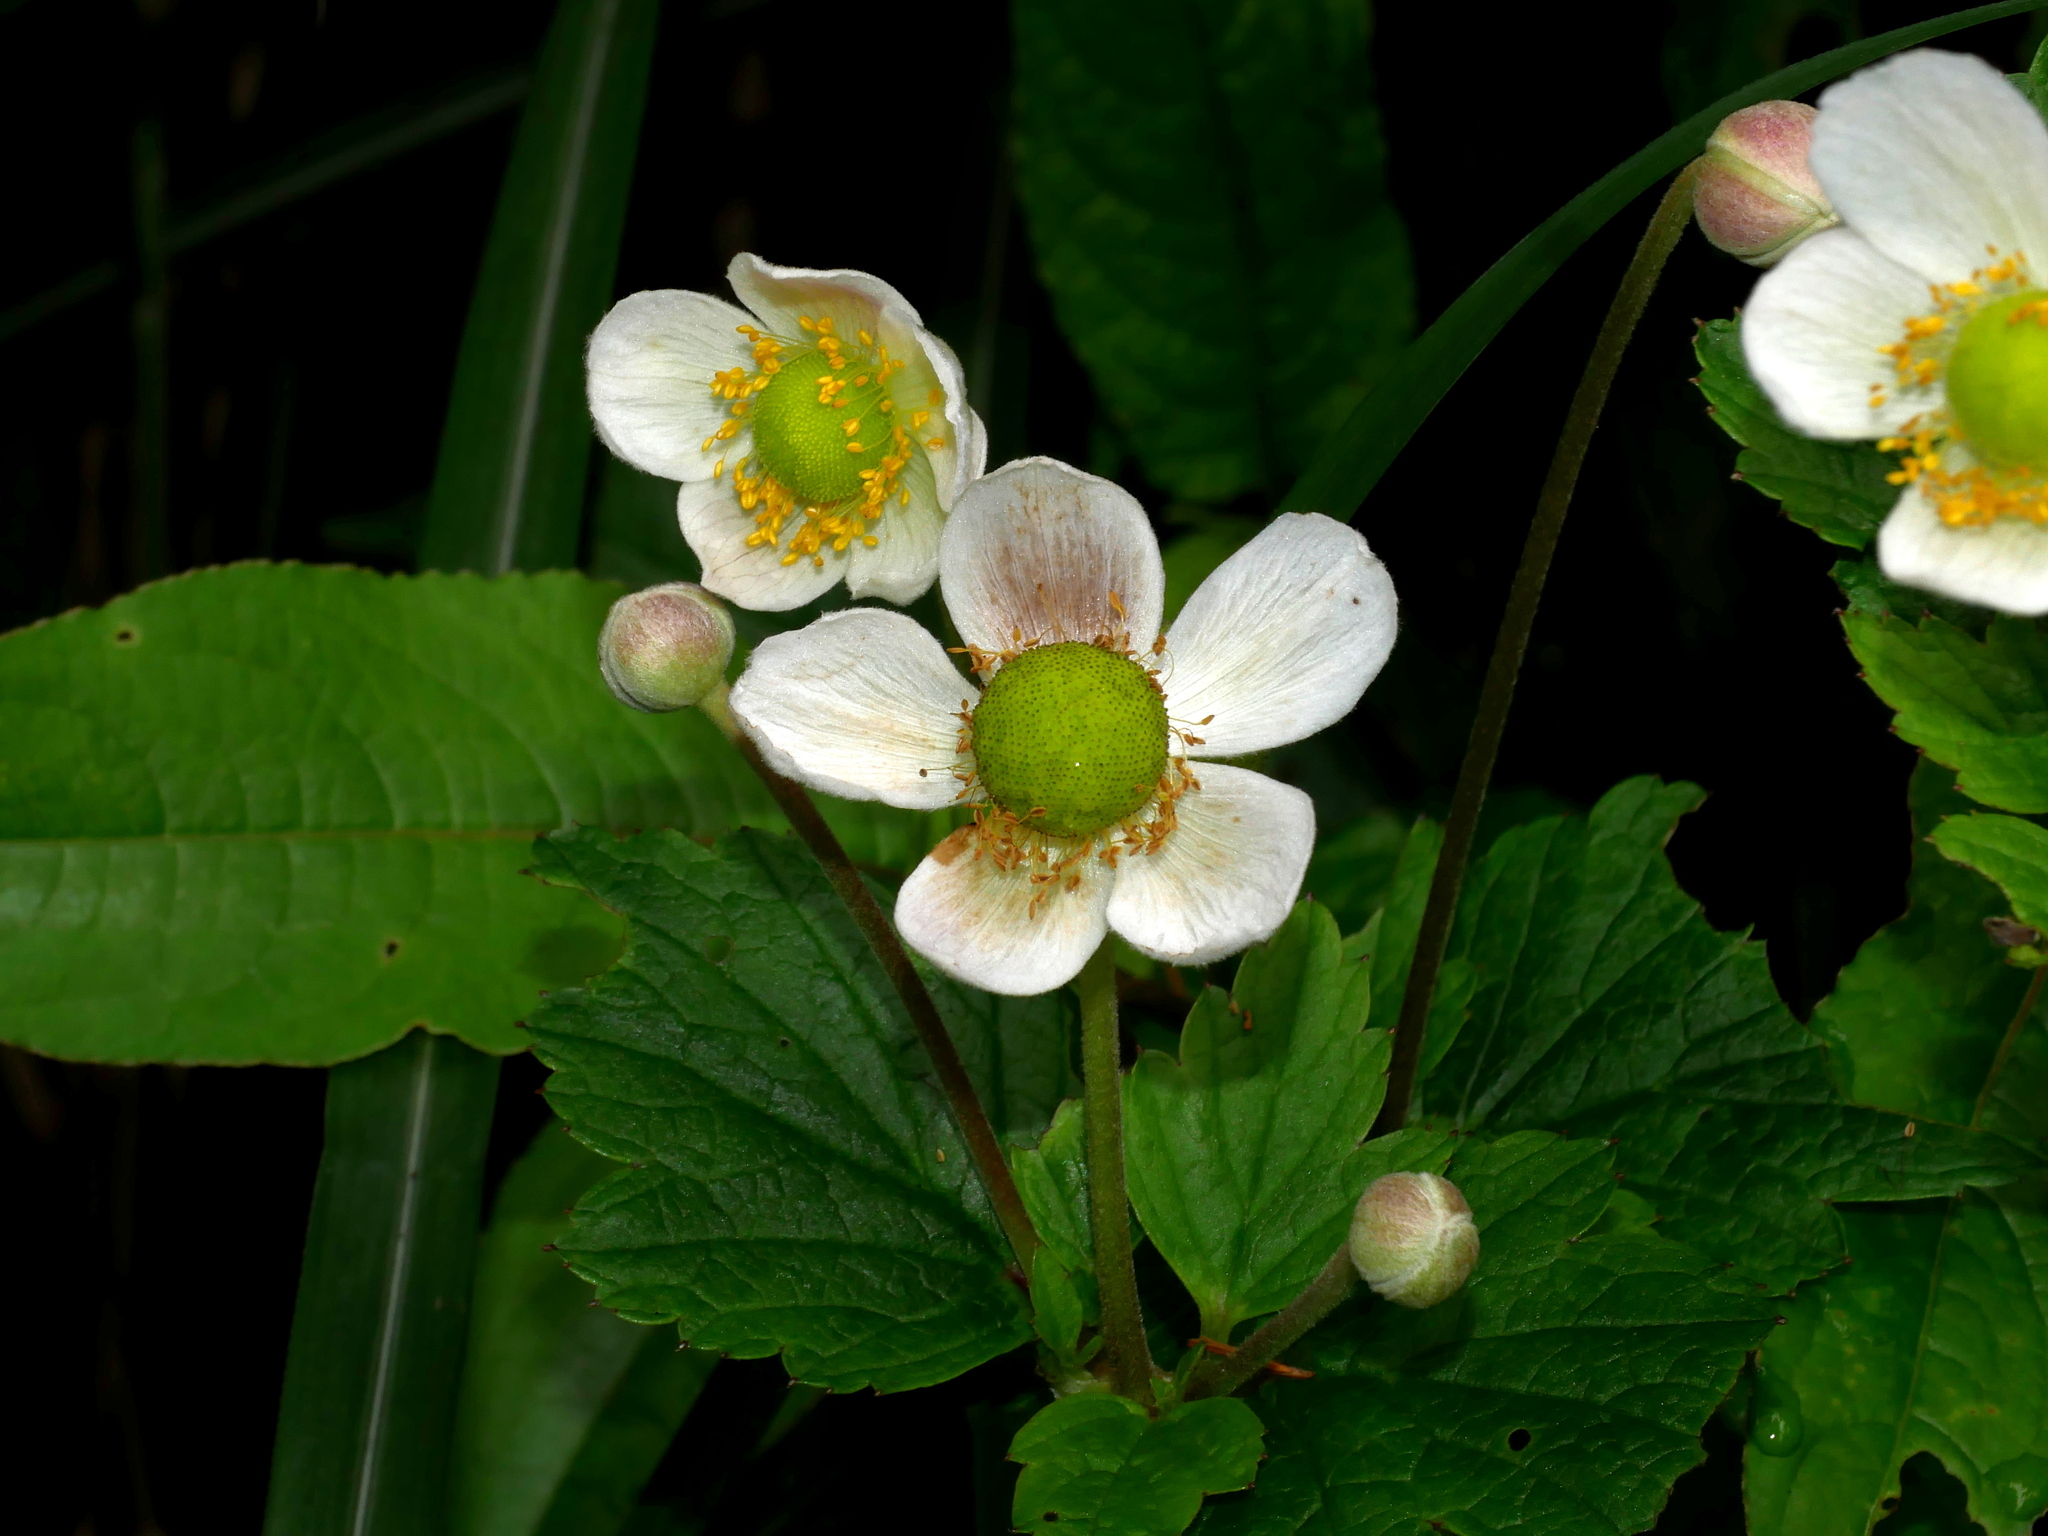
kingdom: Plantae
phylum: Tracheophyta
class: Magnoliopsida
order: Ranunculales
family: Ranunculaceae
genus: Eriocapitella
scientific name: Eriocapitella vitifolia
